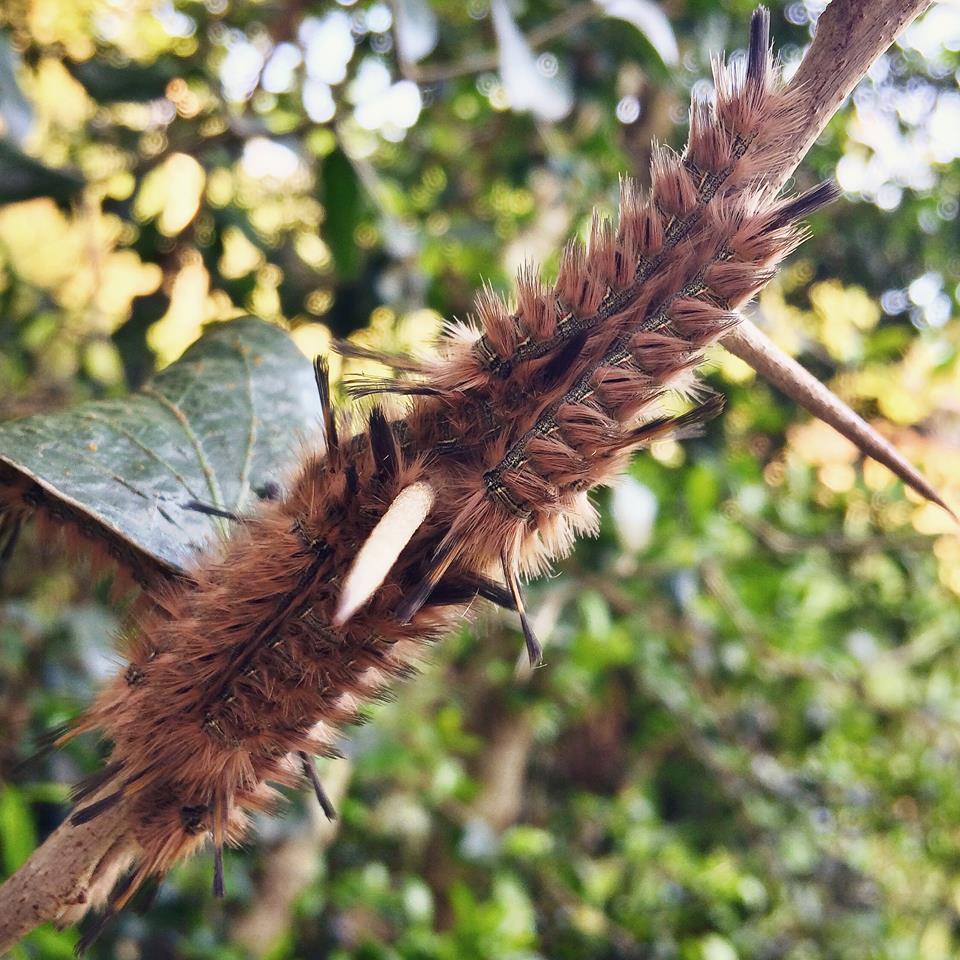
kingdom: Animalia
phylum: Arthropoda
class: Insecta
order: Lepidoptera
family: Eupterotidae
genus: Lichenopteryx
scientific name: Lichenopteryx despecta
